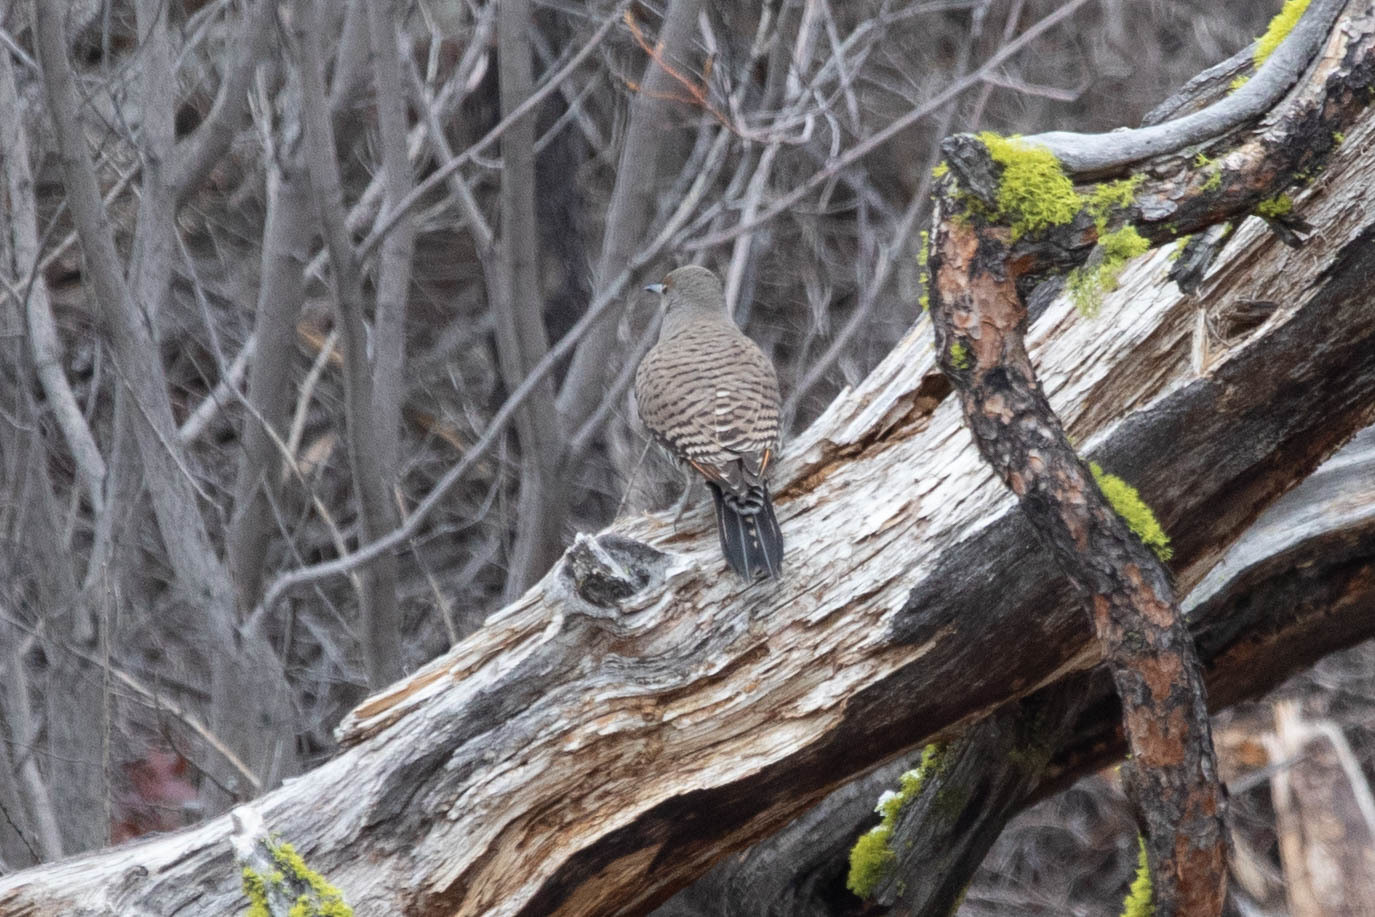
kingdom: Animalia
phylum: Chordata
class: Aves
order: Piciformes
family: Picidae
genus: Colaptes
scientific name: Colaptes auratus
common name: Northern flicker
